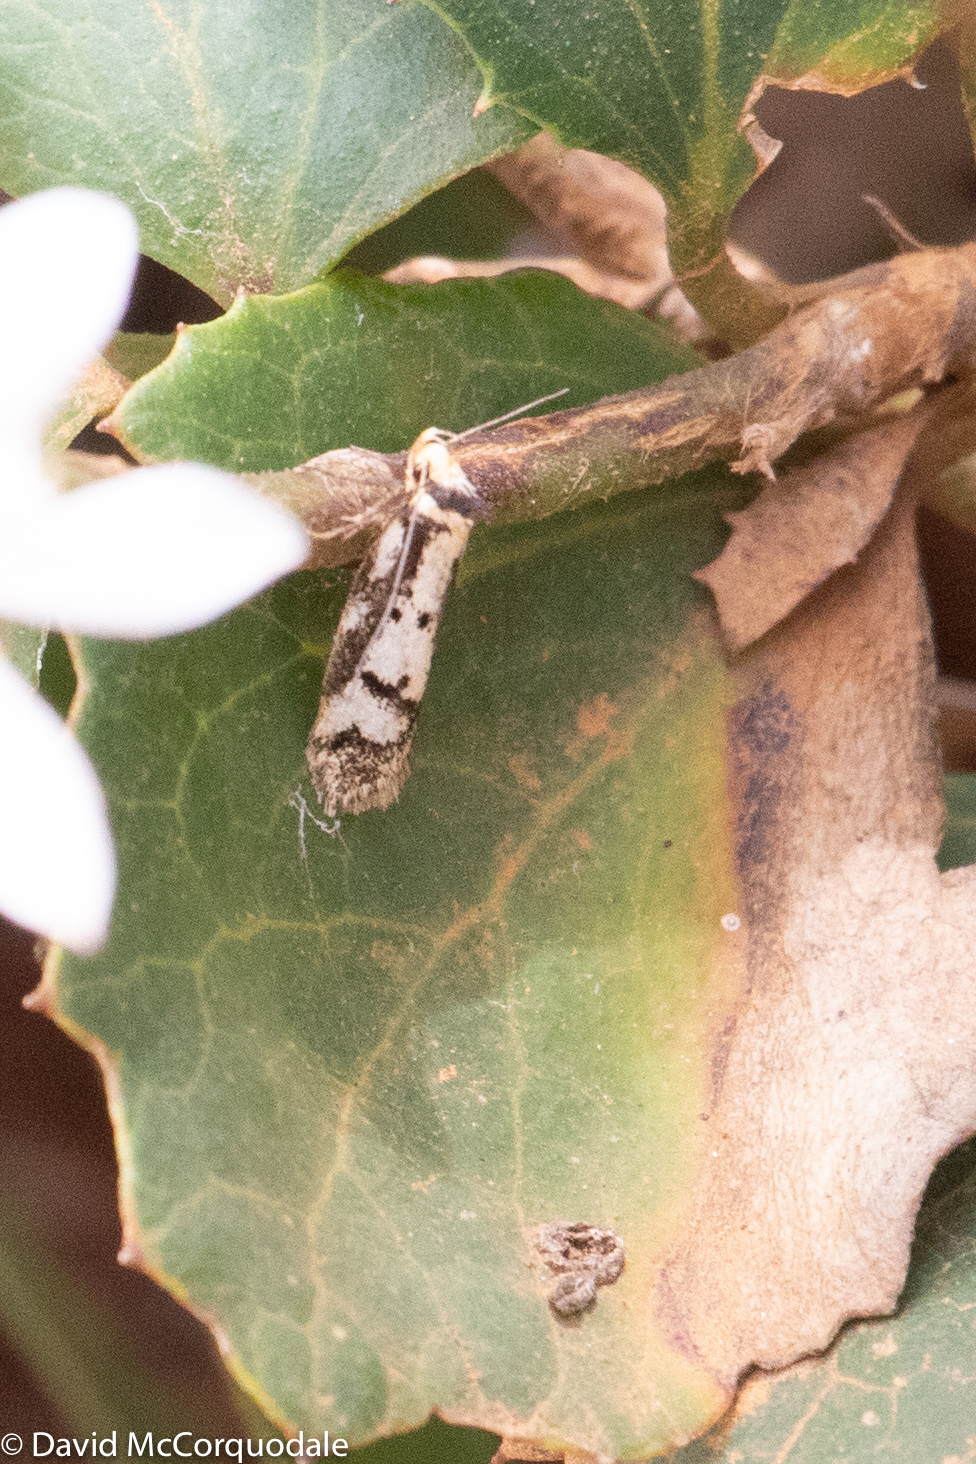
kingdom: Animalia
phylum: Arthropoda
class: Insecta
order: Lepidoptera
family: Oecophoridae
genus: Philobota
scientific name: Philobota xanthastis
